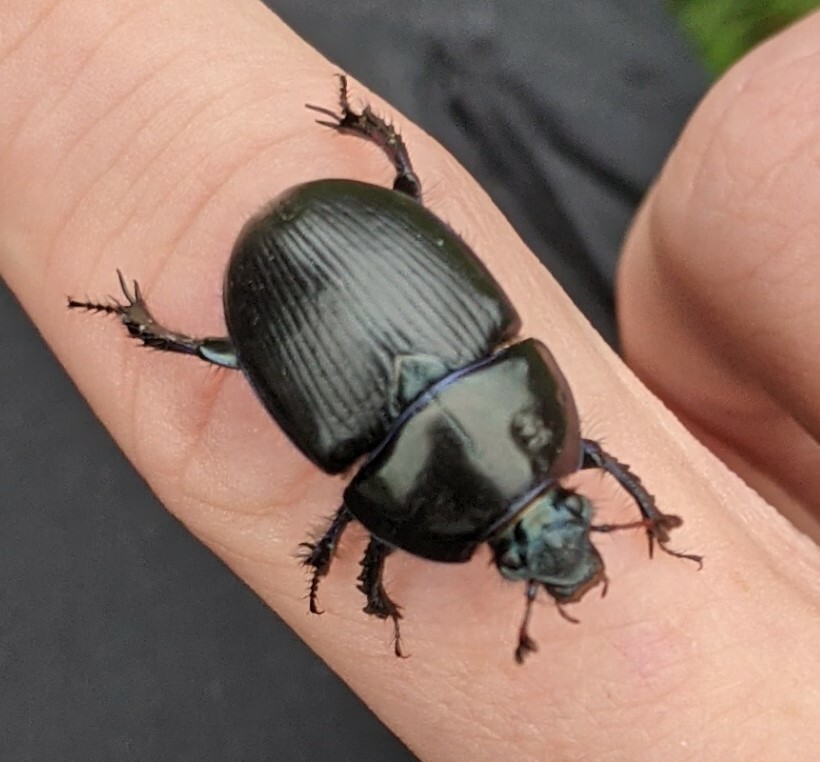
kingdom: Animalia
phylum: Arthropoda
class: Insecta
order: Coleoptera
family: Geotrupidae
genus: Geotrupes
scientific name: Geotrupes stercorarius
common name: Earth-boring dung beetle
